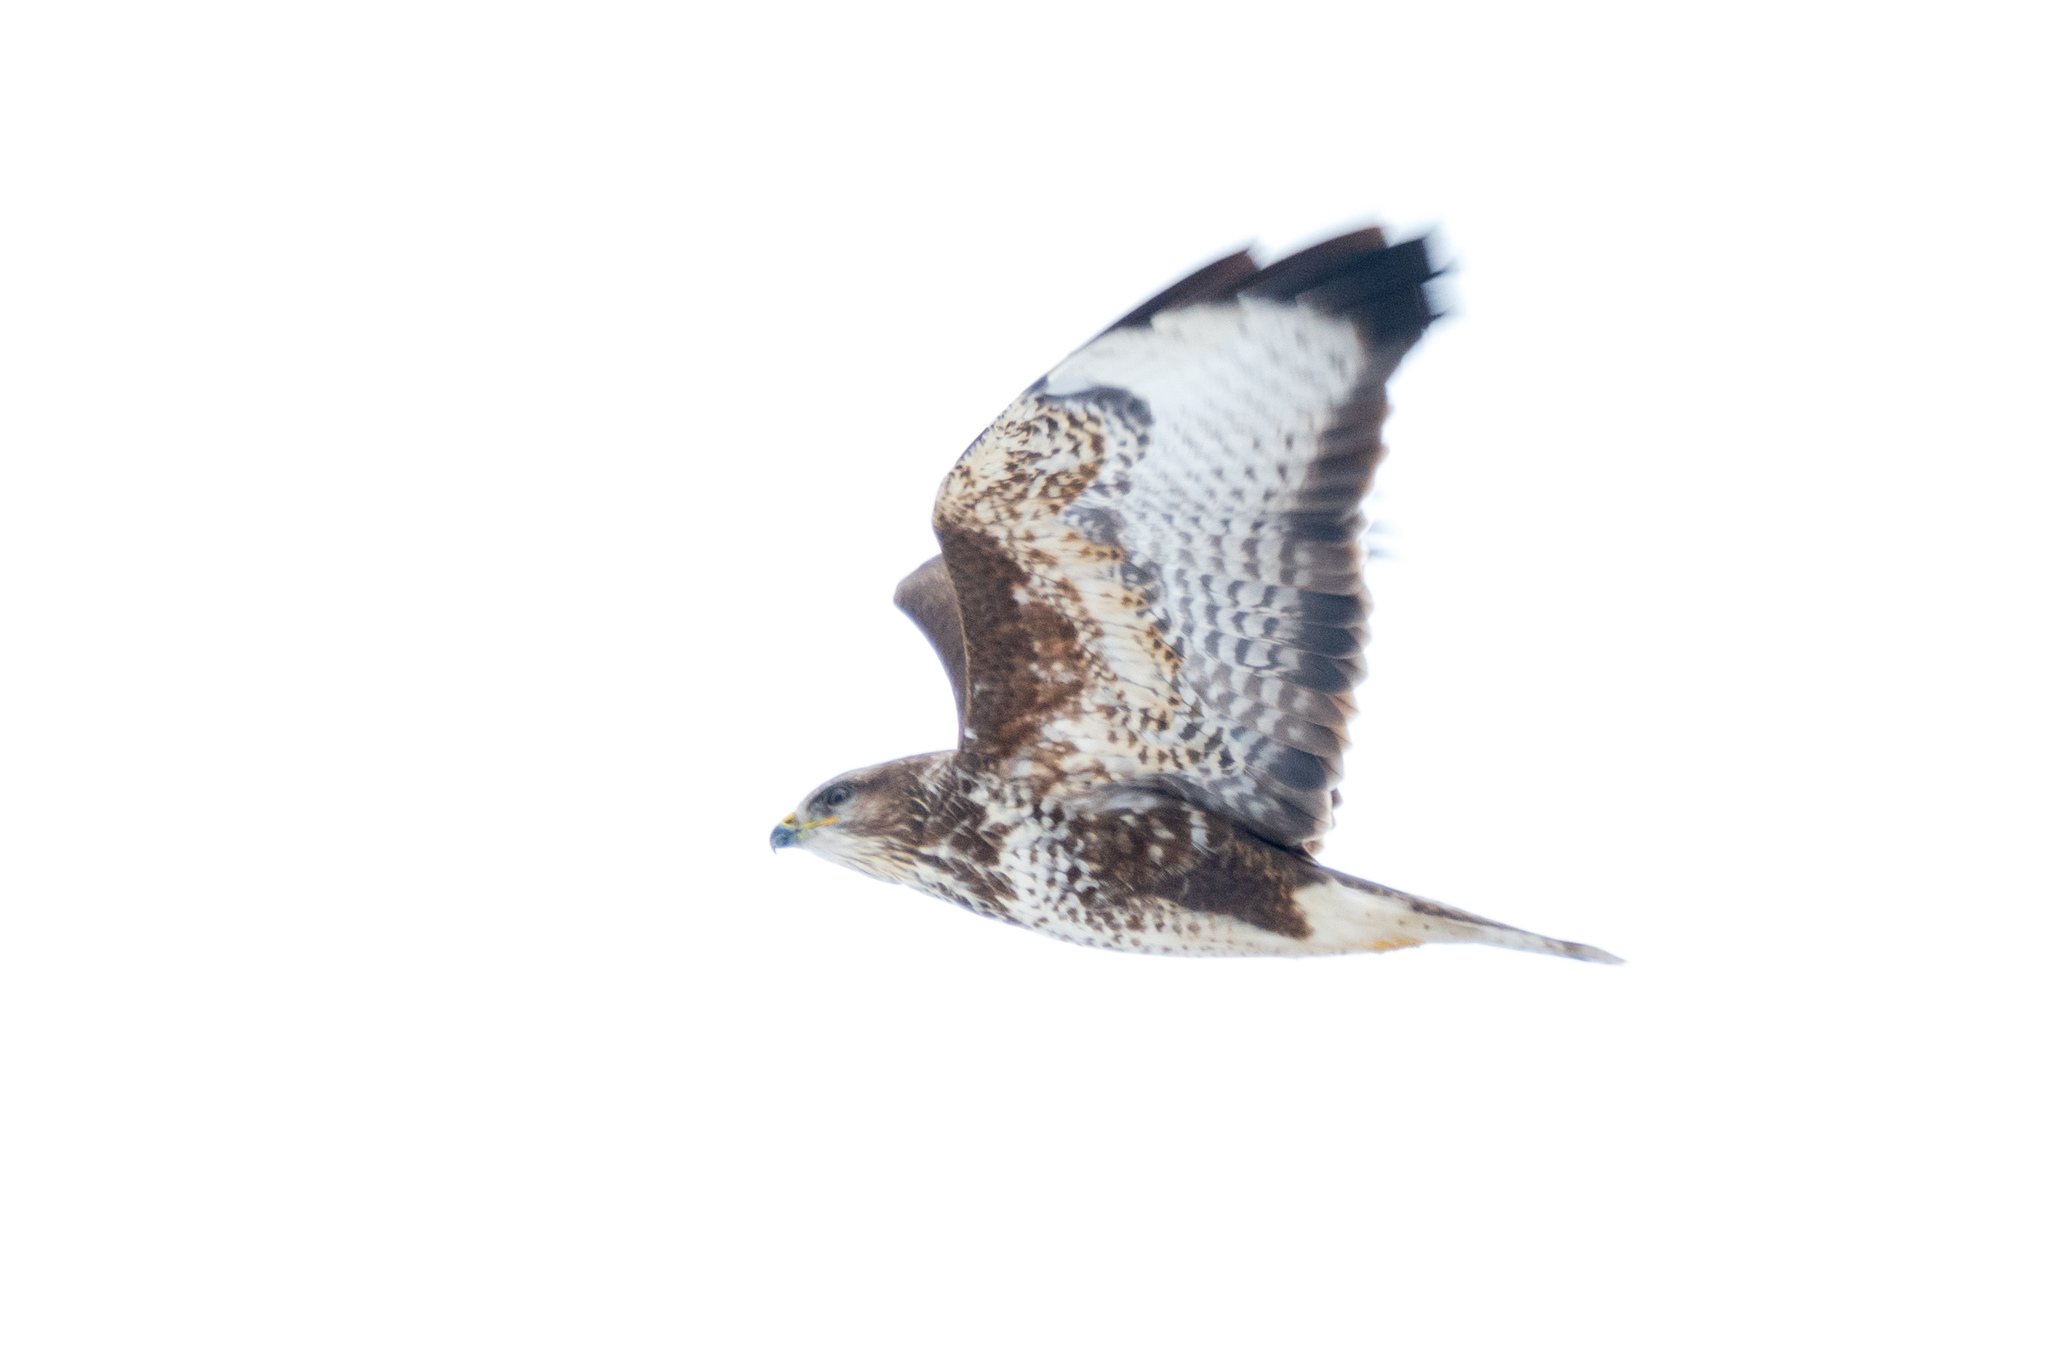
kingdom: Animalia
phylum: Chordata
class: Aves
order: Accipitriformes
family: Accipitridae
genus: Buteo
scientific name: Buteo buteo
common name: Common buzzard
